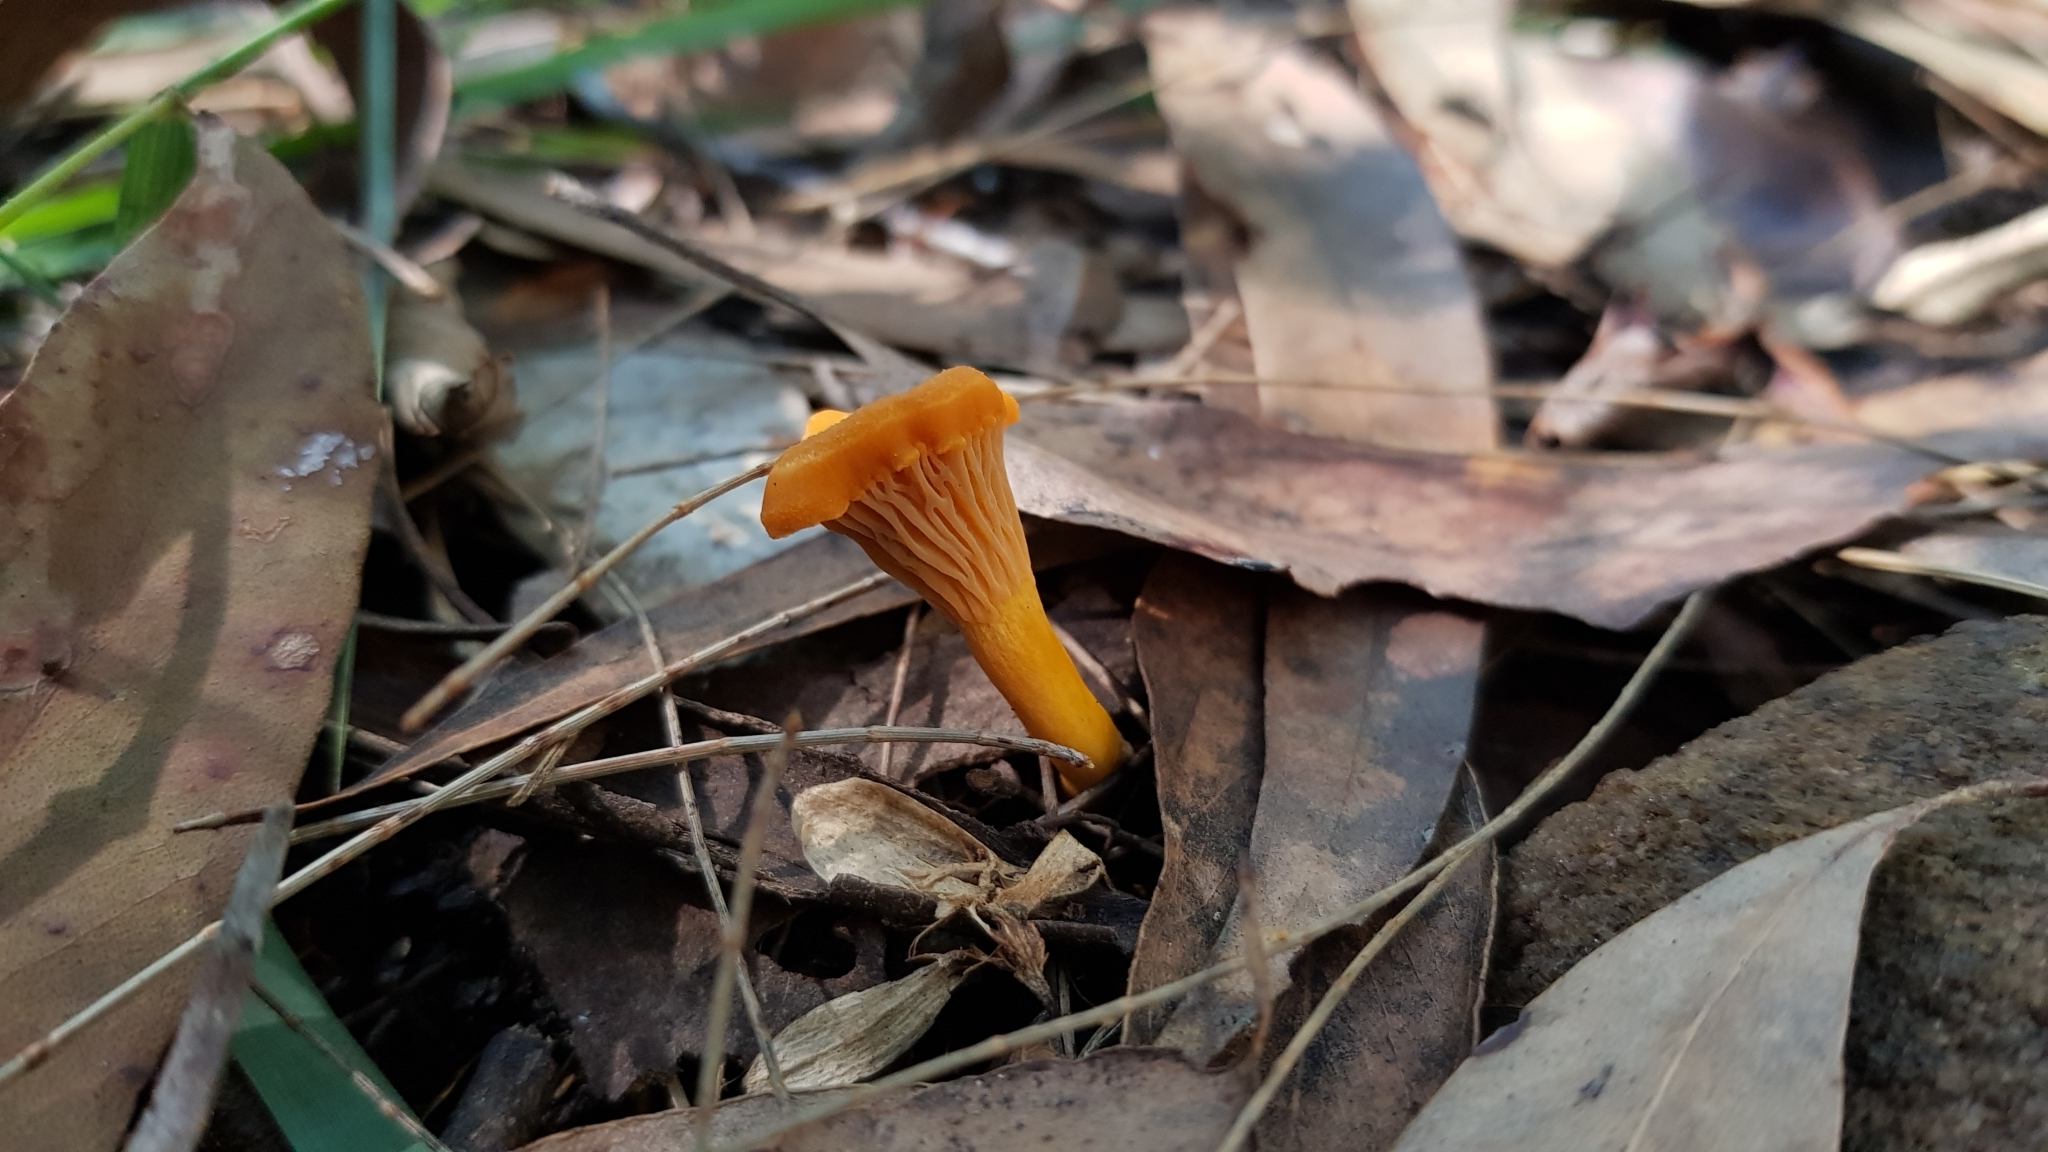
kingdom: Fungi
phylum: Basidiomycota
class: Agaricomycetes
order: Cantharellales
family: Hydnaceae
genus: Cantharellus
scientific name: Cantharellus
